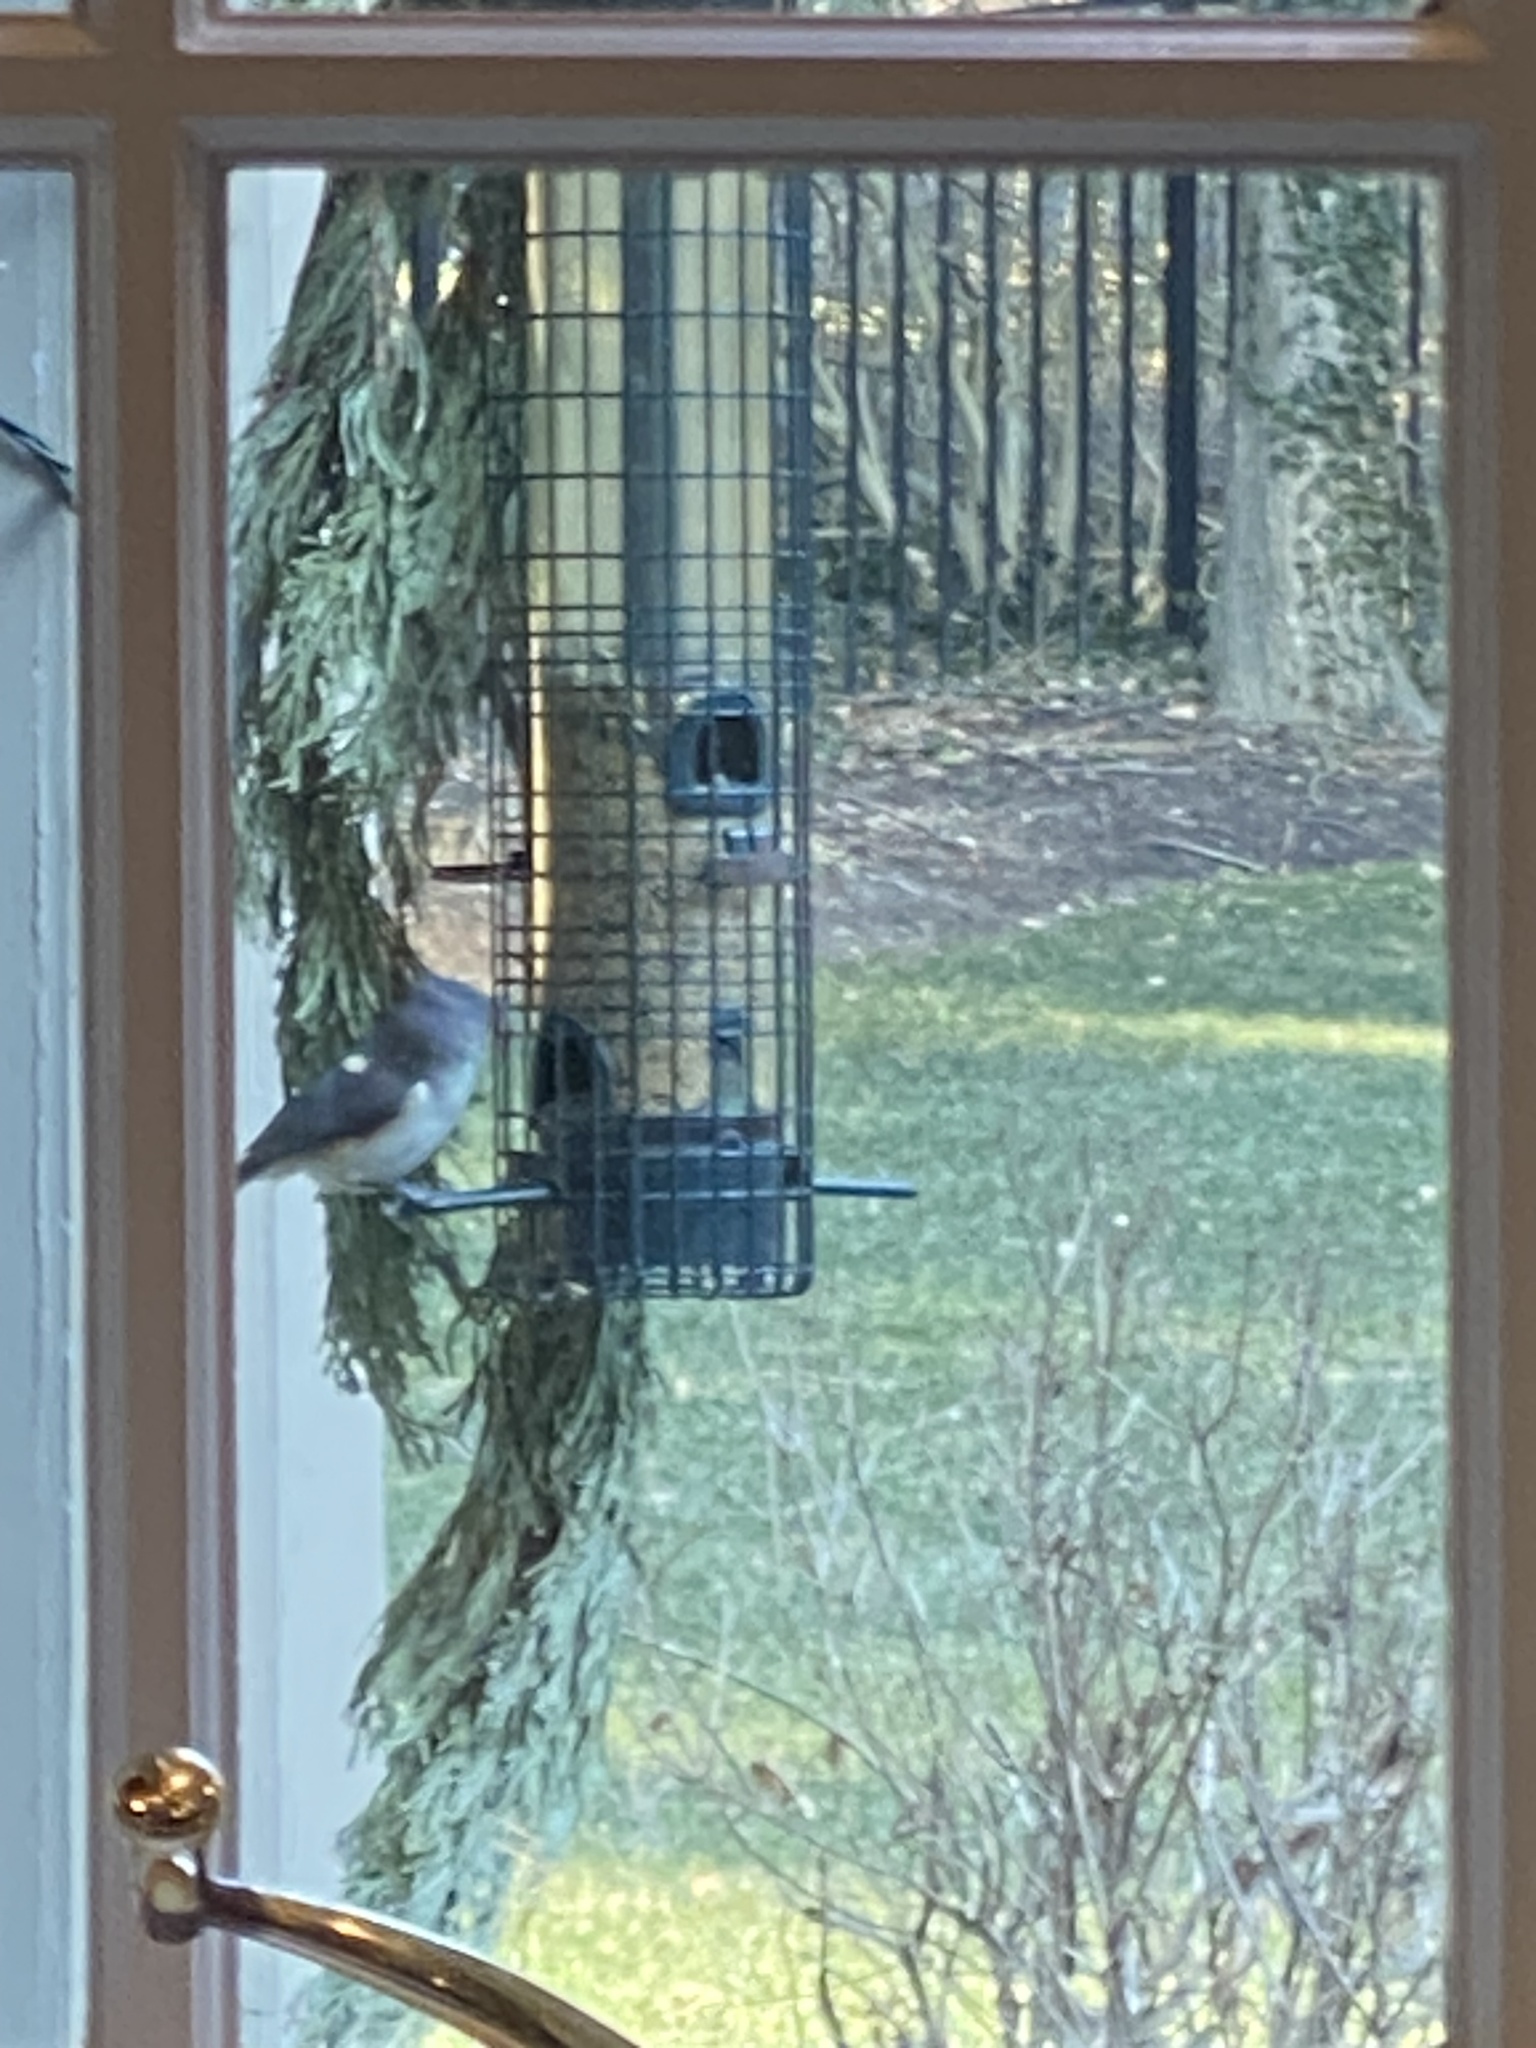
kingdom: Animalia
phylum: Chordata
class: Aves
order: Passeriformes
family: Paridae
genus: Baeolophus
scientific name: Baeolophus bicolor
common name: Tufted titmouse
